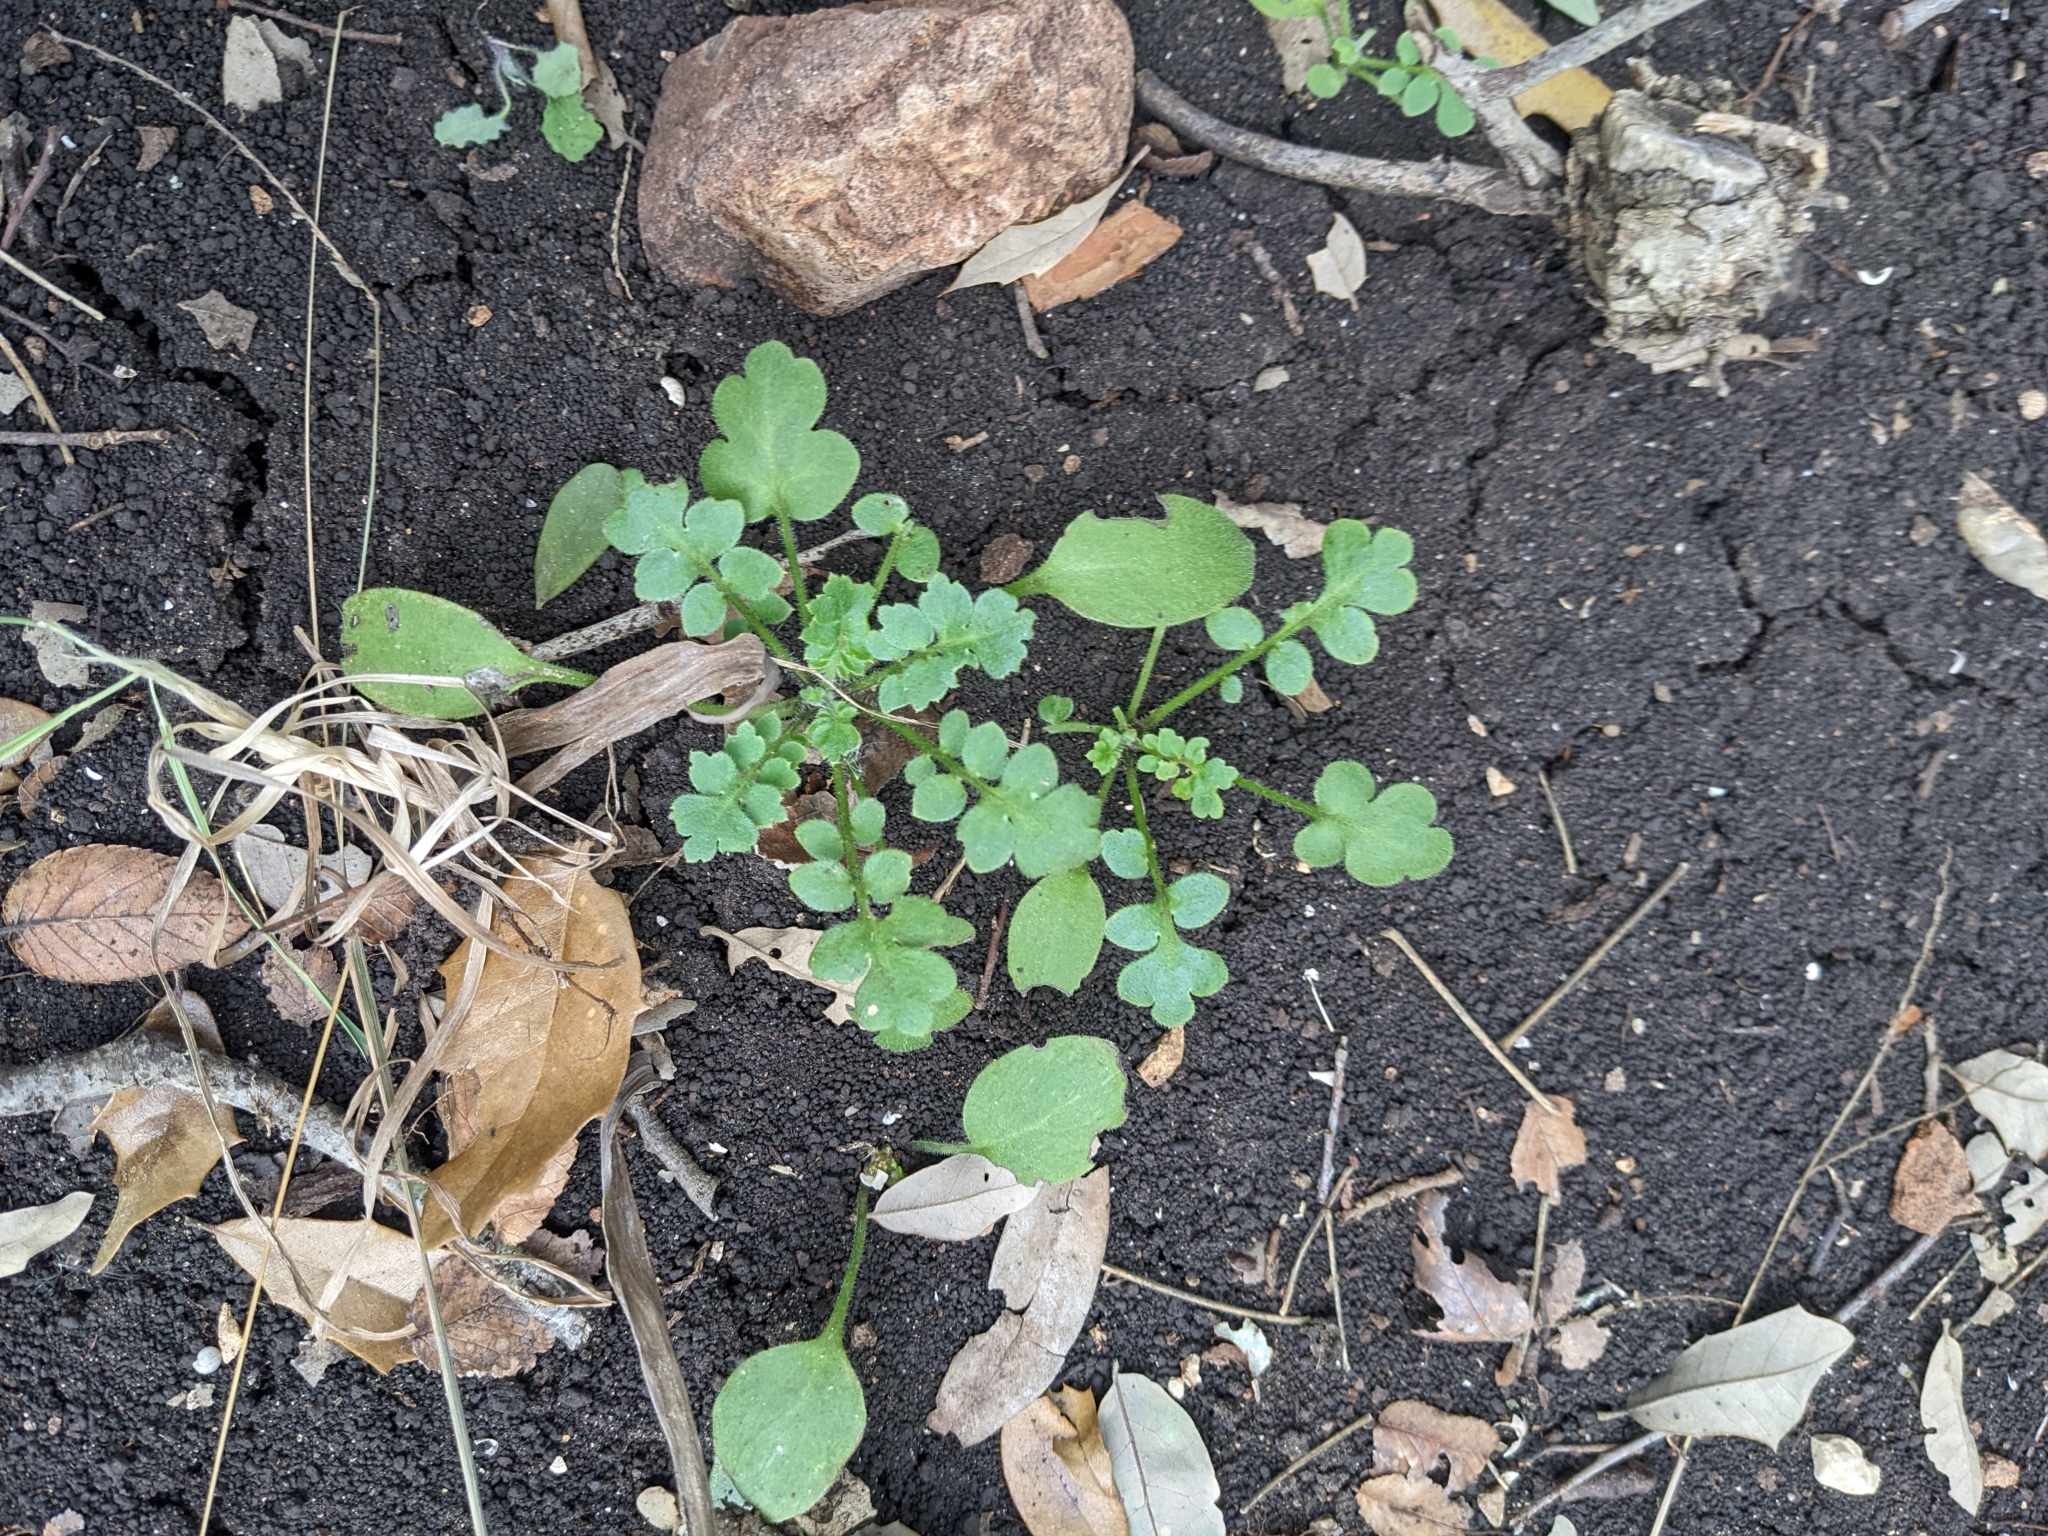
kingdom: Plantae
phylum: Tracheophyta
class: Magnoliopsida
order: Boraginales
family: Hydrophyllaceae
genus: Nemophila
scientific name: Nemophila phacelioides
